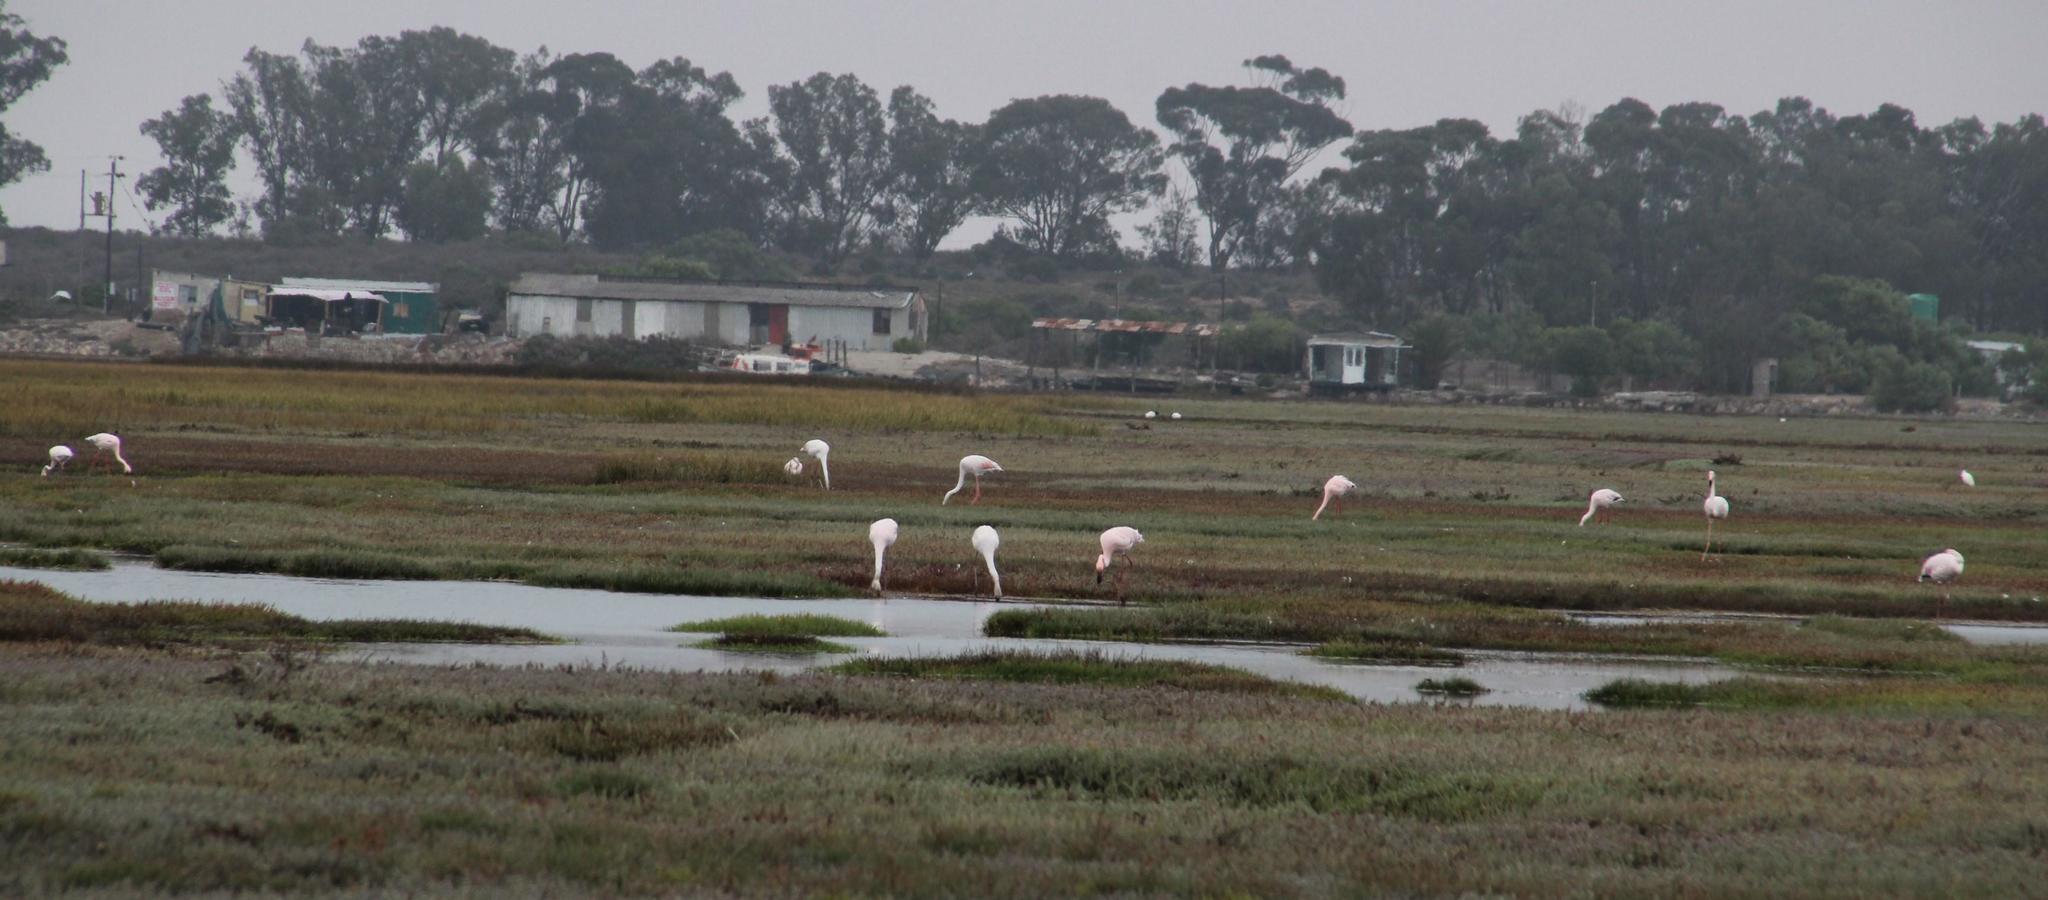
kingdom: Animalia
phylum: Chordata
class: Aves
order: Phoenicopteriformes
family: Phoenicopteridae
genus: Phoenicopterus
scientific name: Phoenicopterus roseus
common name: Greater flamingo
